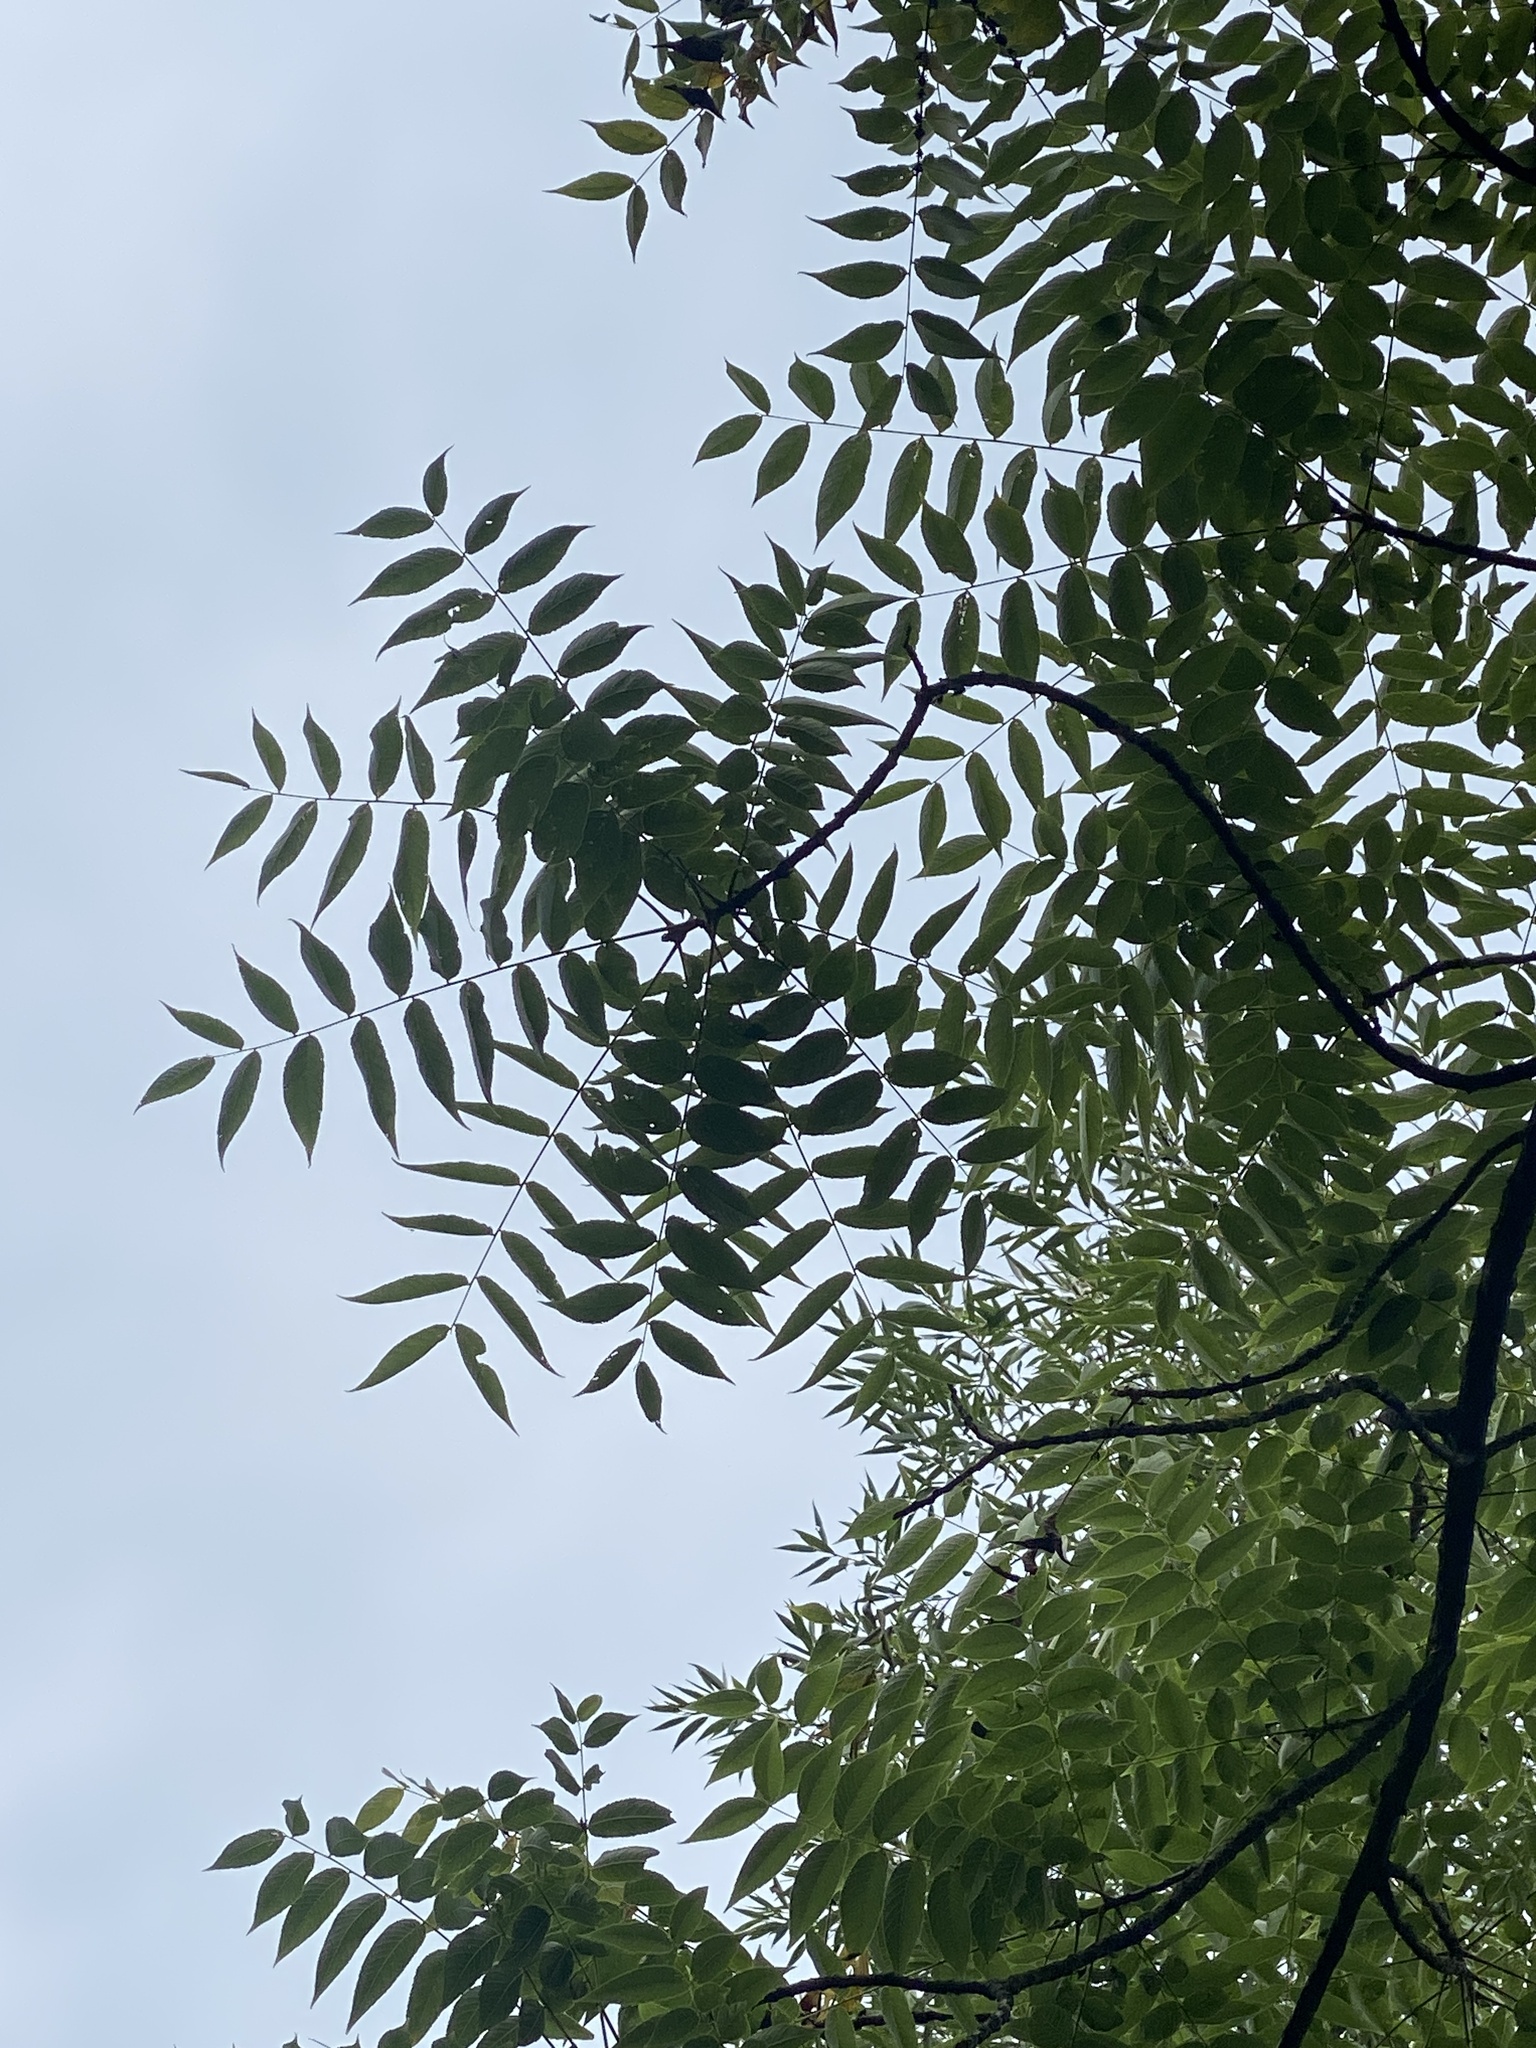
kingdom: Plantae
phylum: Tracheophyta
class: Magnoliopsida
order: Fagales
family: Juglandaceae
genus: Juglans
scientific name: Juglans nigra
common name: Black walnut
